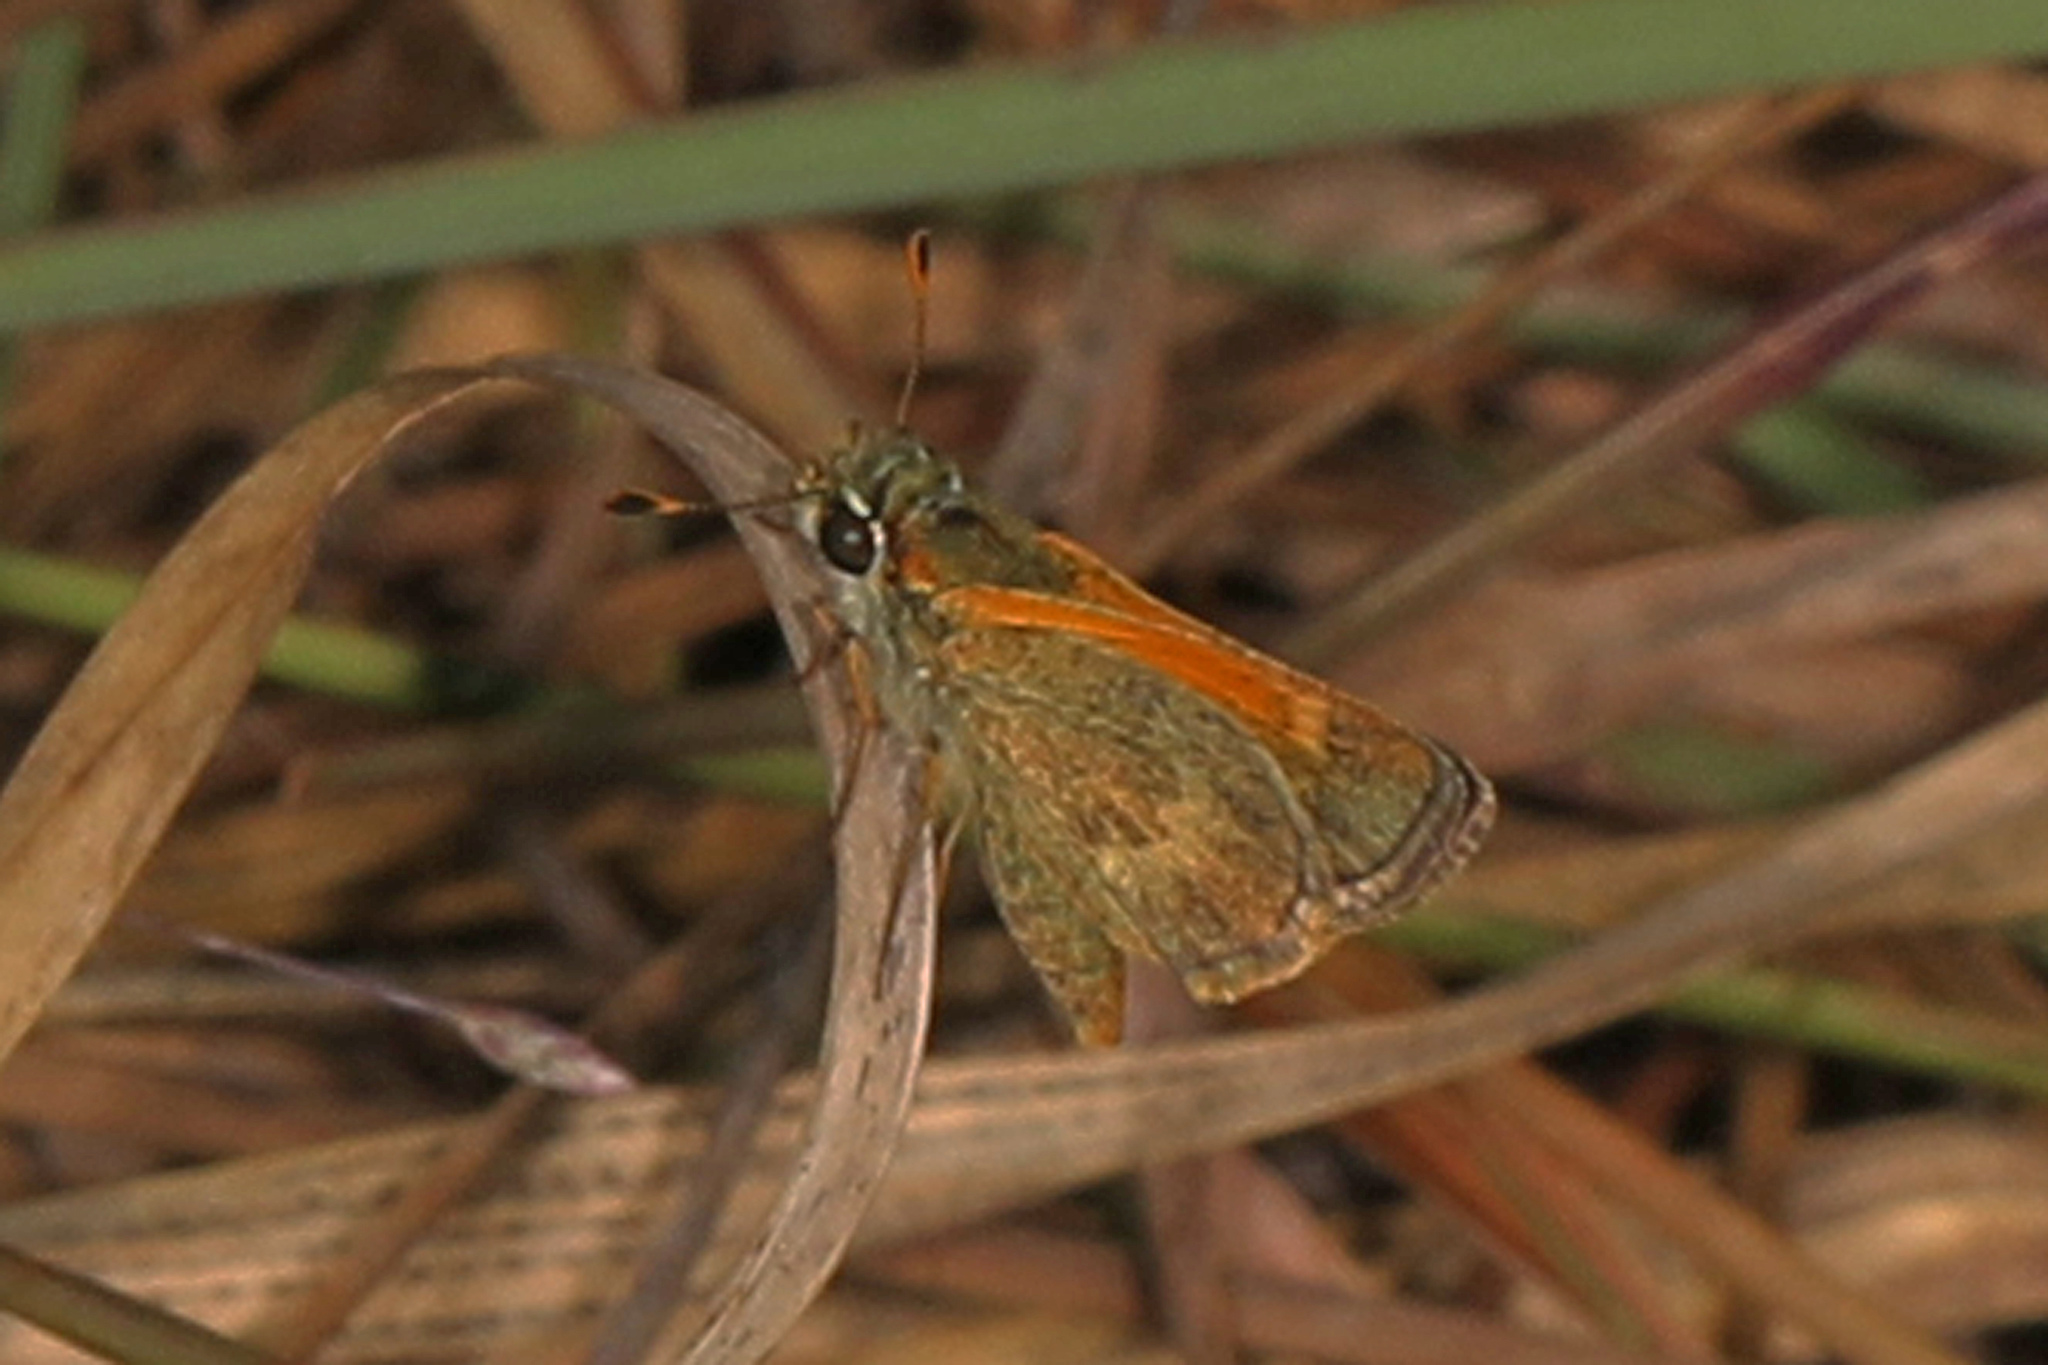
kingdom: Animalia
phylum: Arthropoda
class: Insecta
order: Lepidoptera
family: Hesperiidae
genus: Polites
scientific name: Polites baracoa
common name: Baracoa skipper
